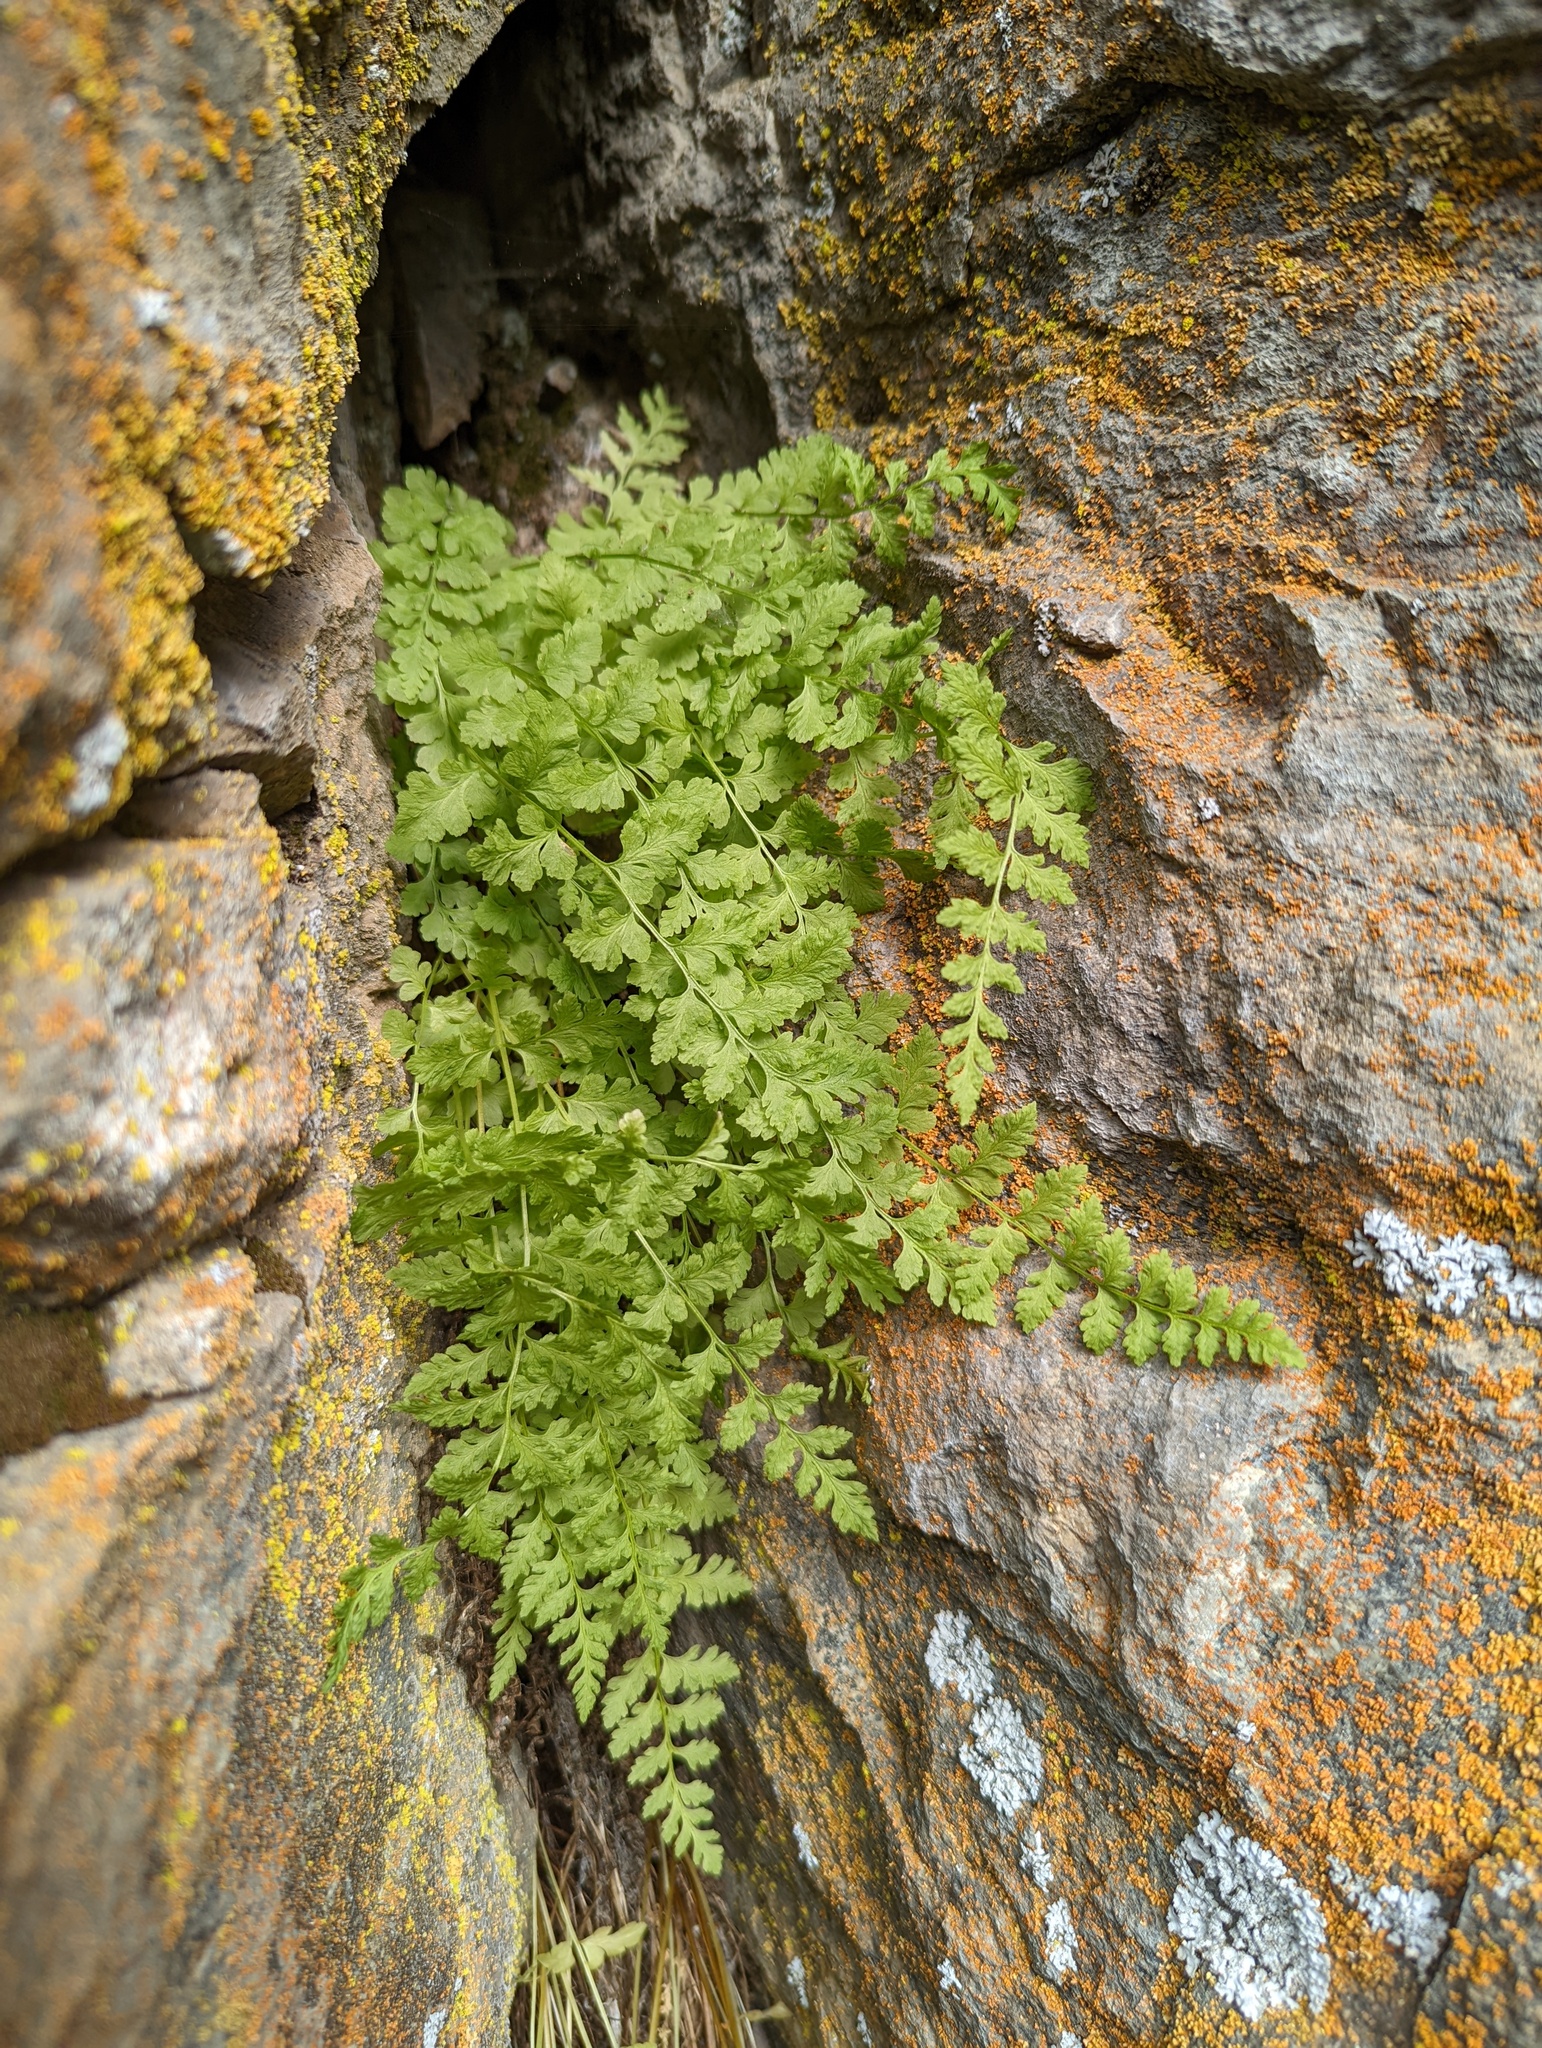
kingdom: Plantae
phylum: Tracheophyta
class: Polypodiopsida
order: Polypodiales
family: Cystopteridaceae
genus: Cystopteris
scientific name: Cystopteris fragilis
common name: Brittle bladder fern
